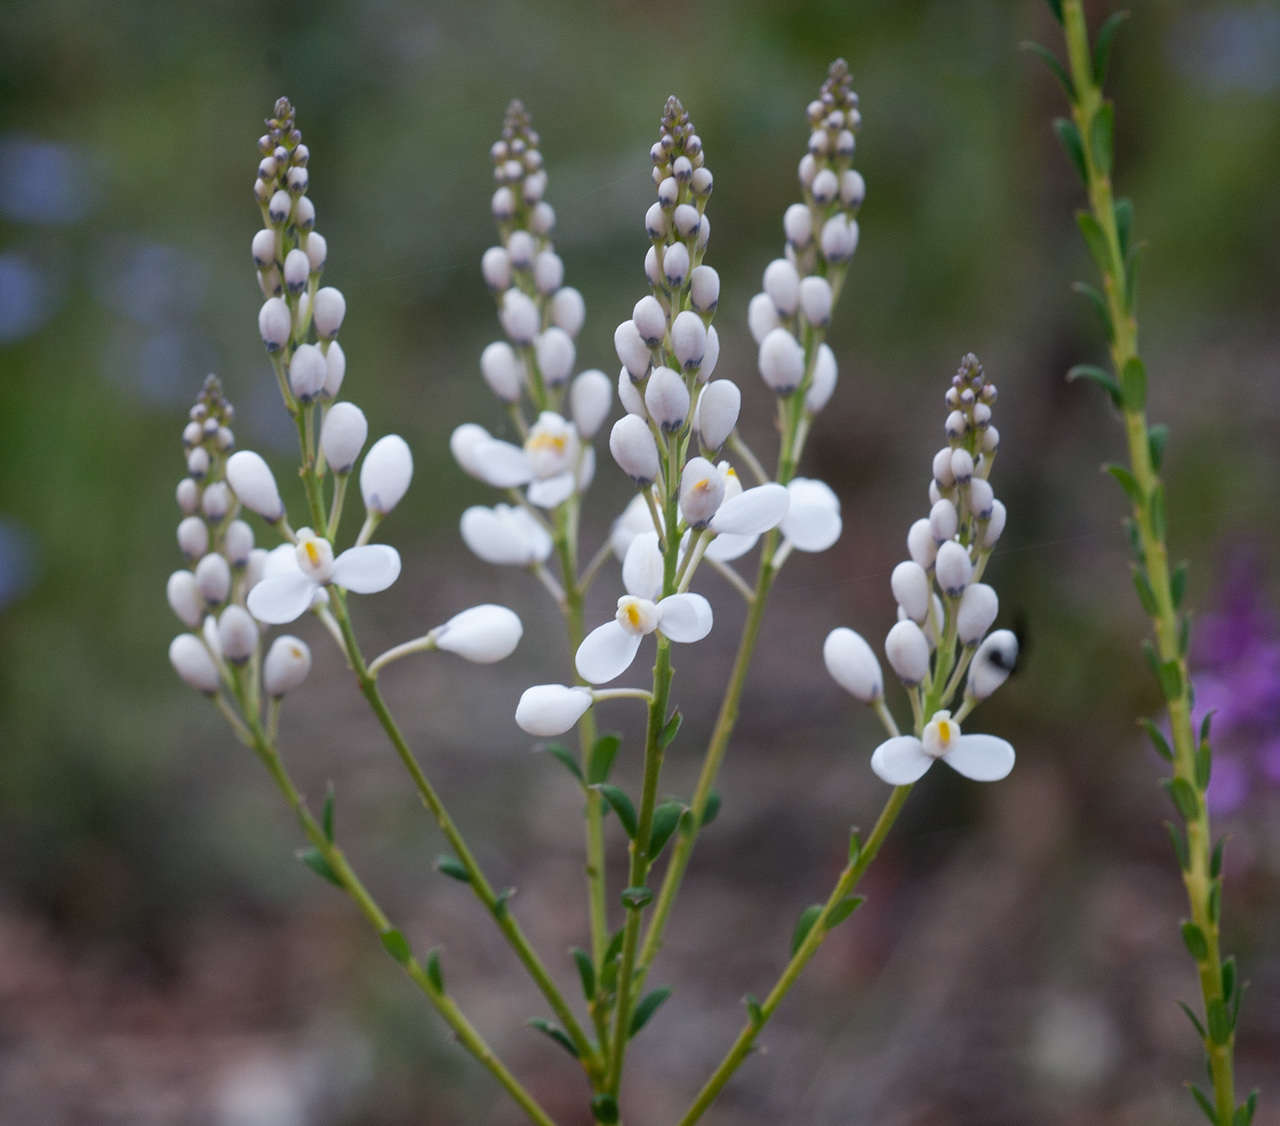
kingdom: Plantae
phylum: Tracheophyta
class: Magnoliopsida
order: Fabales
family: Polygalaceae
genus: Comesperma
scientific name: Comesperma ericinum
